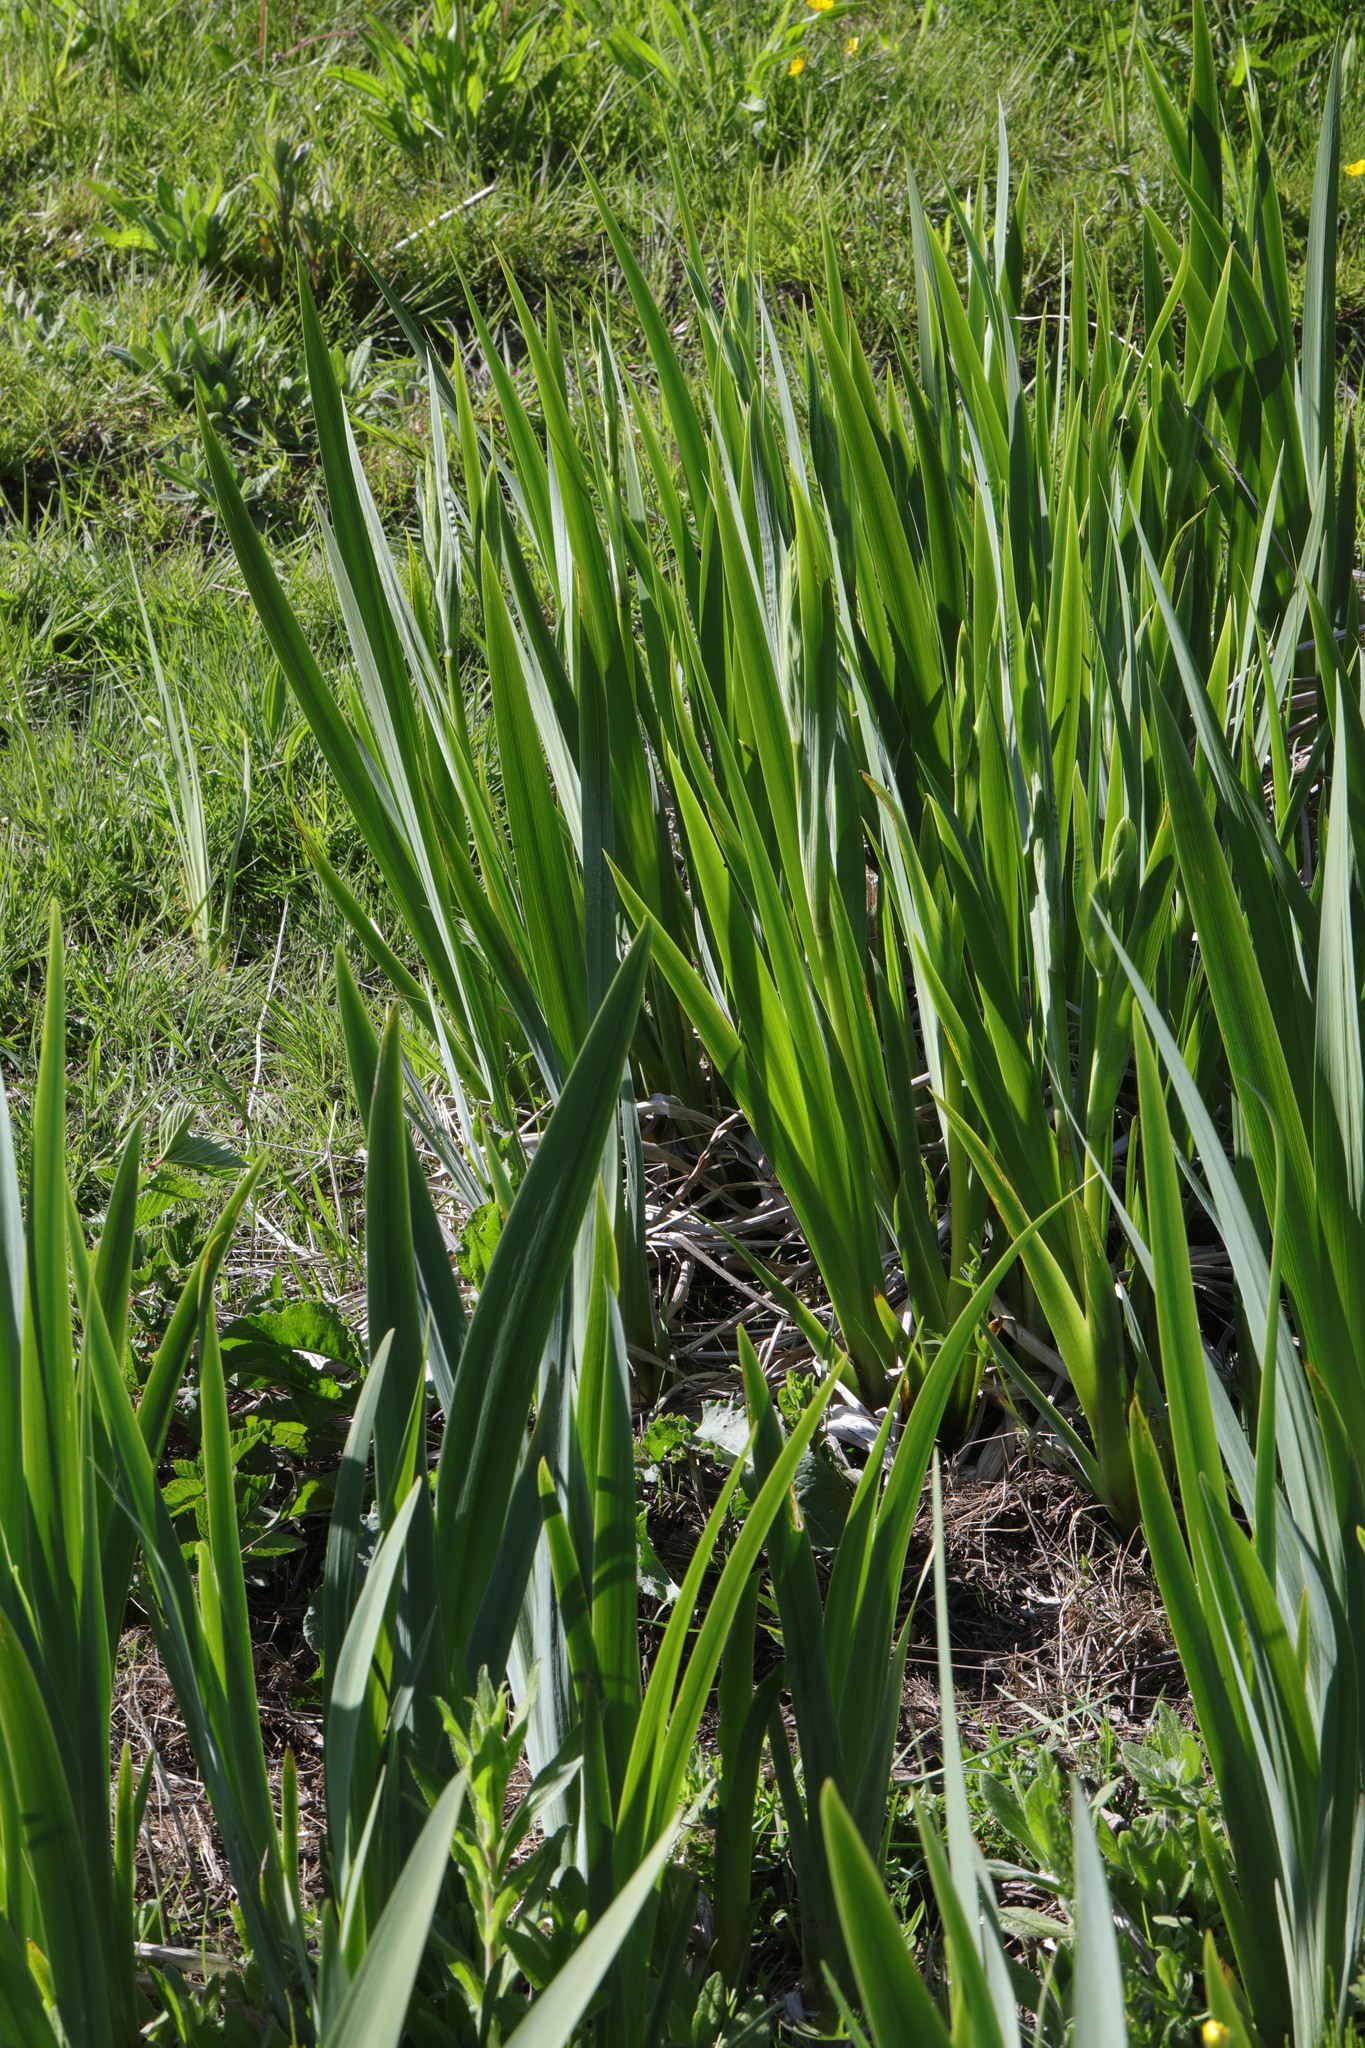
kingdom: Plantae
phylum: Tracheophyta
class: Liliopsida
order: Asparagales
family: Iridaceae
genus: Iris
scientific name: Iris pseudacorus
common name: Yellow flag
